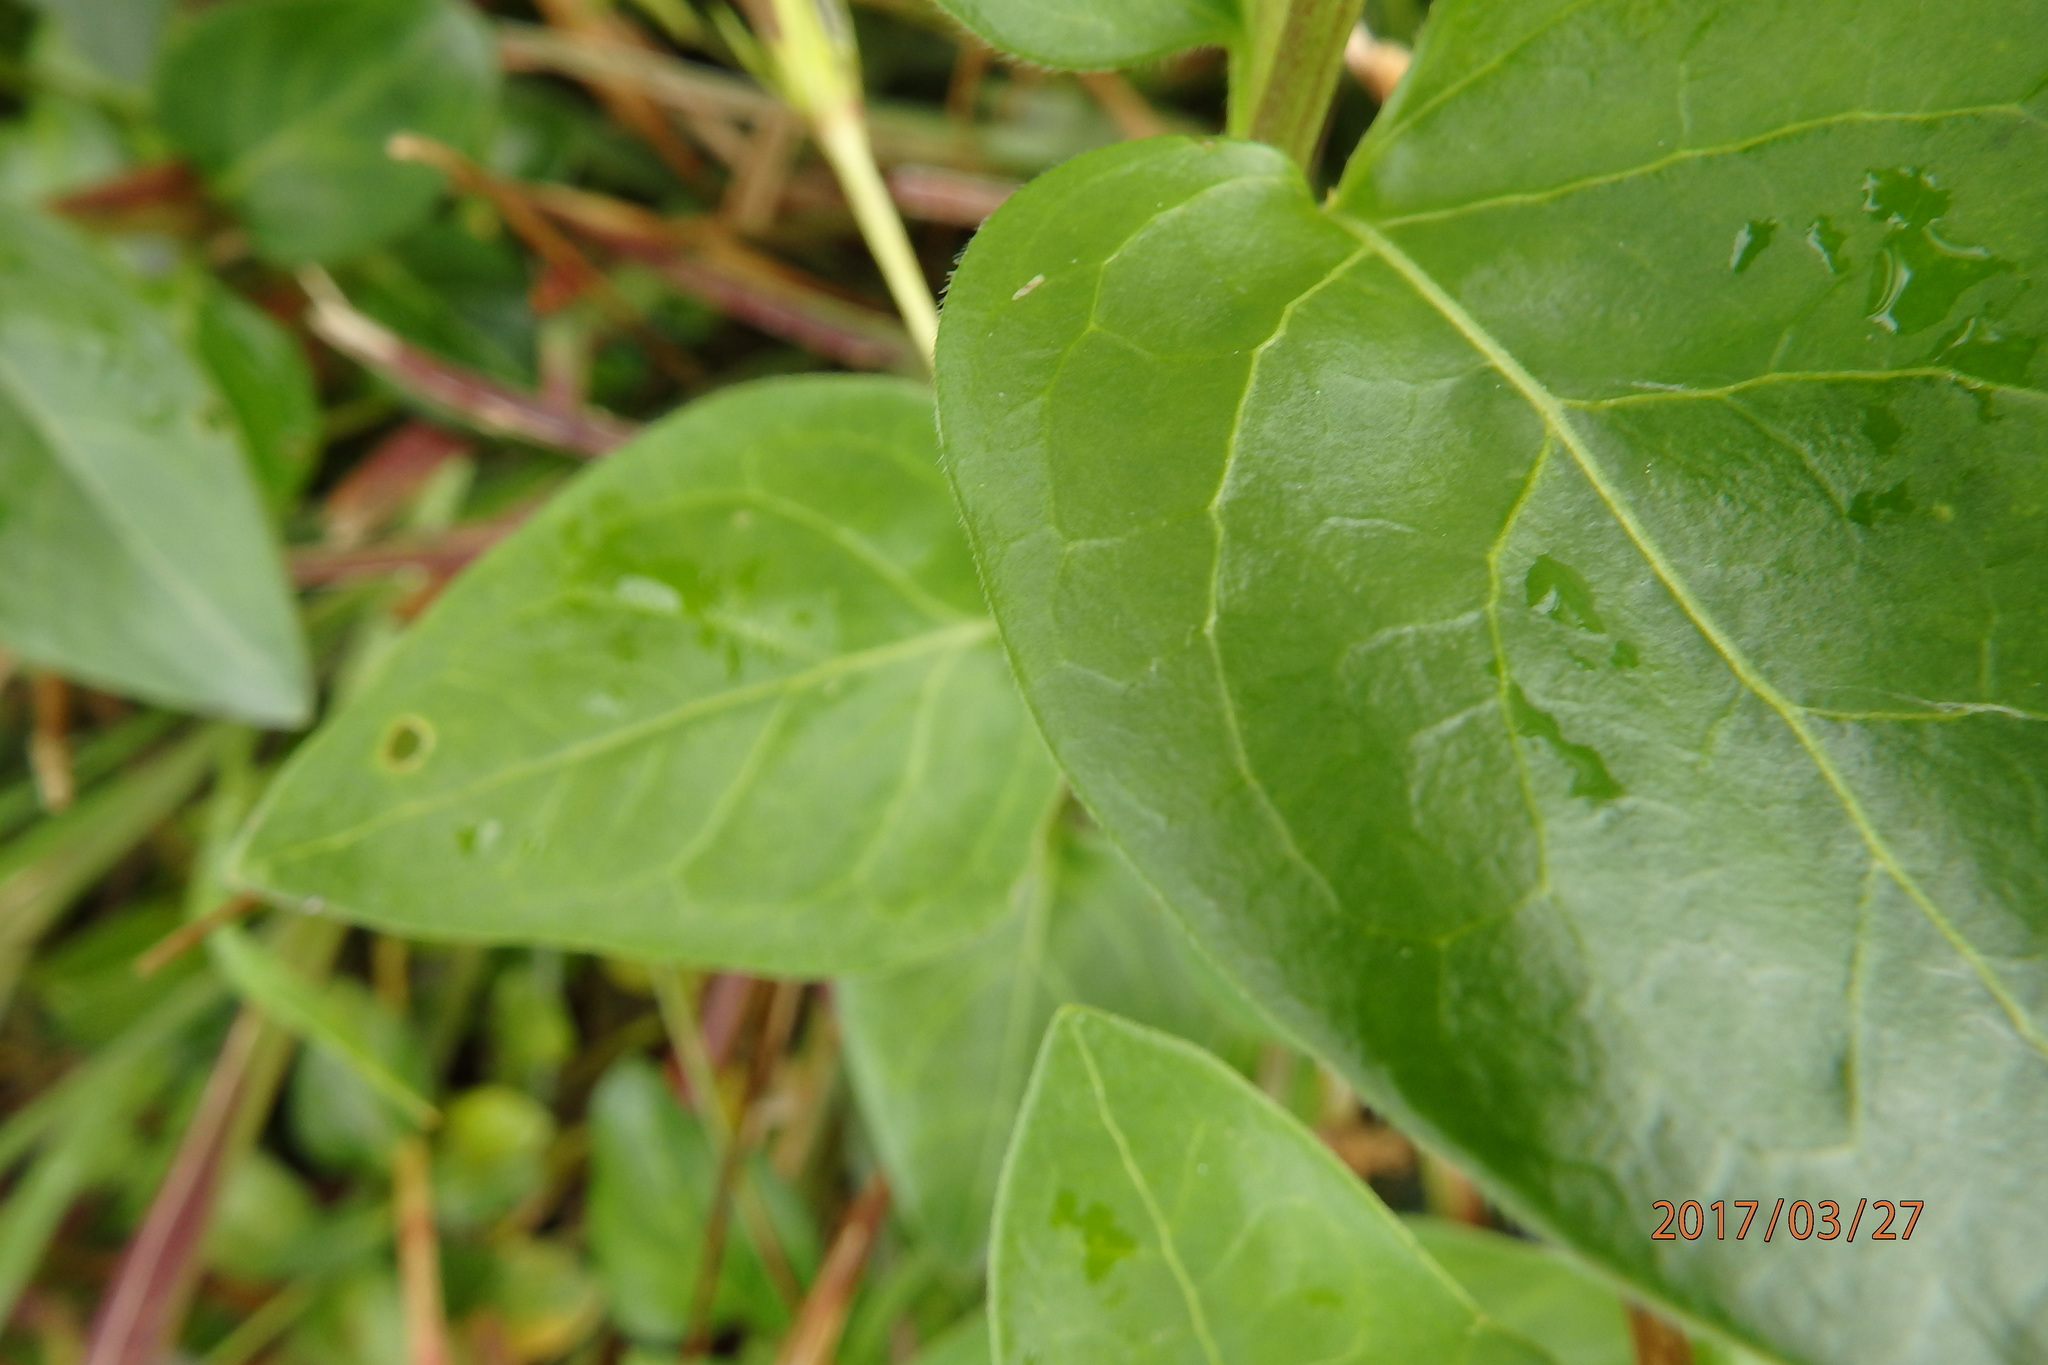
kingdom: Plantae
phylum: Tracheophyta
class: Magnoliopsida
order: Gentianales
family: Apocynaceae
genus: Vinca
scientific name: Vinca major
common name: Greater periwinkle
